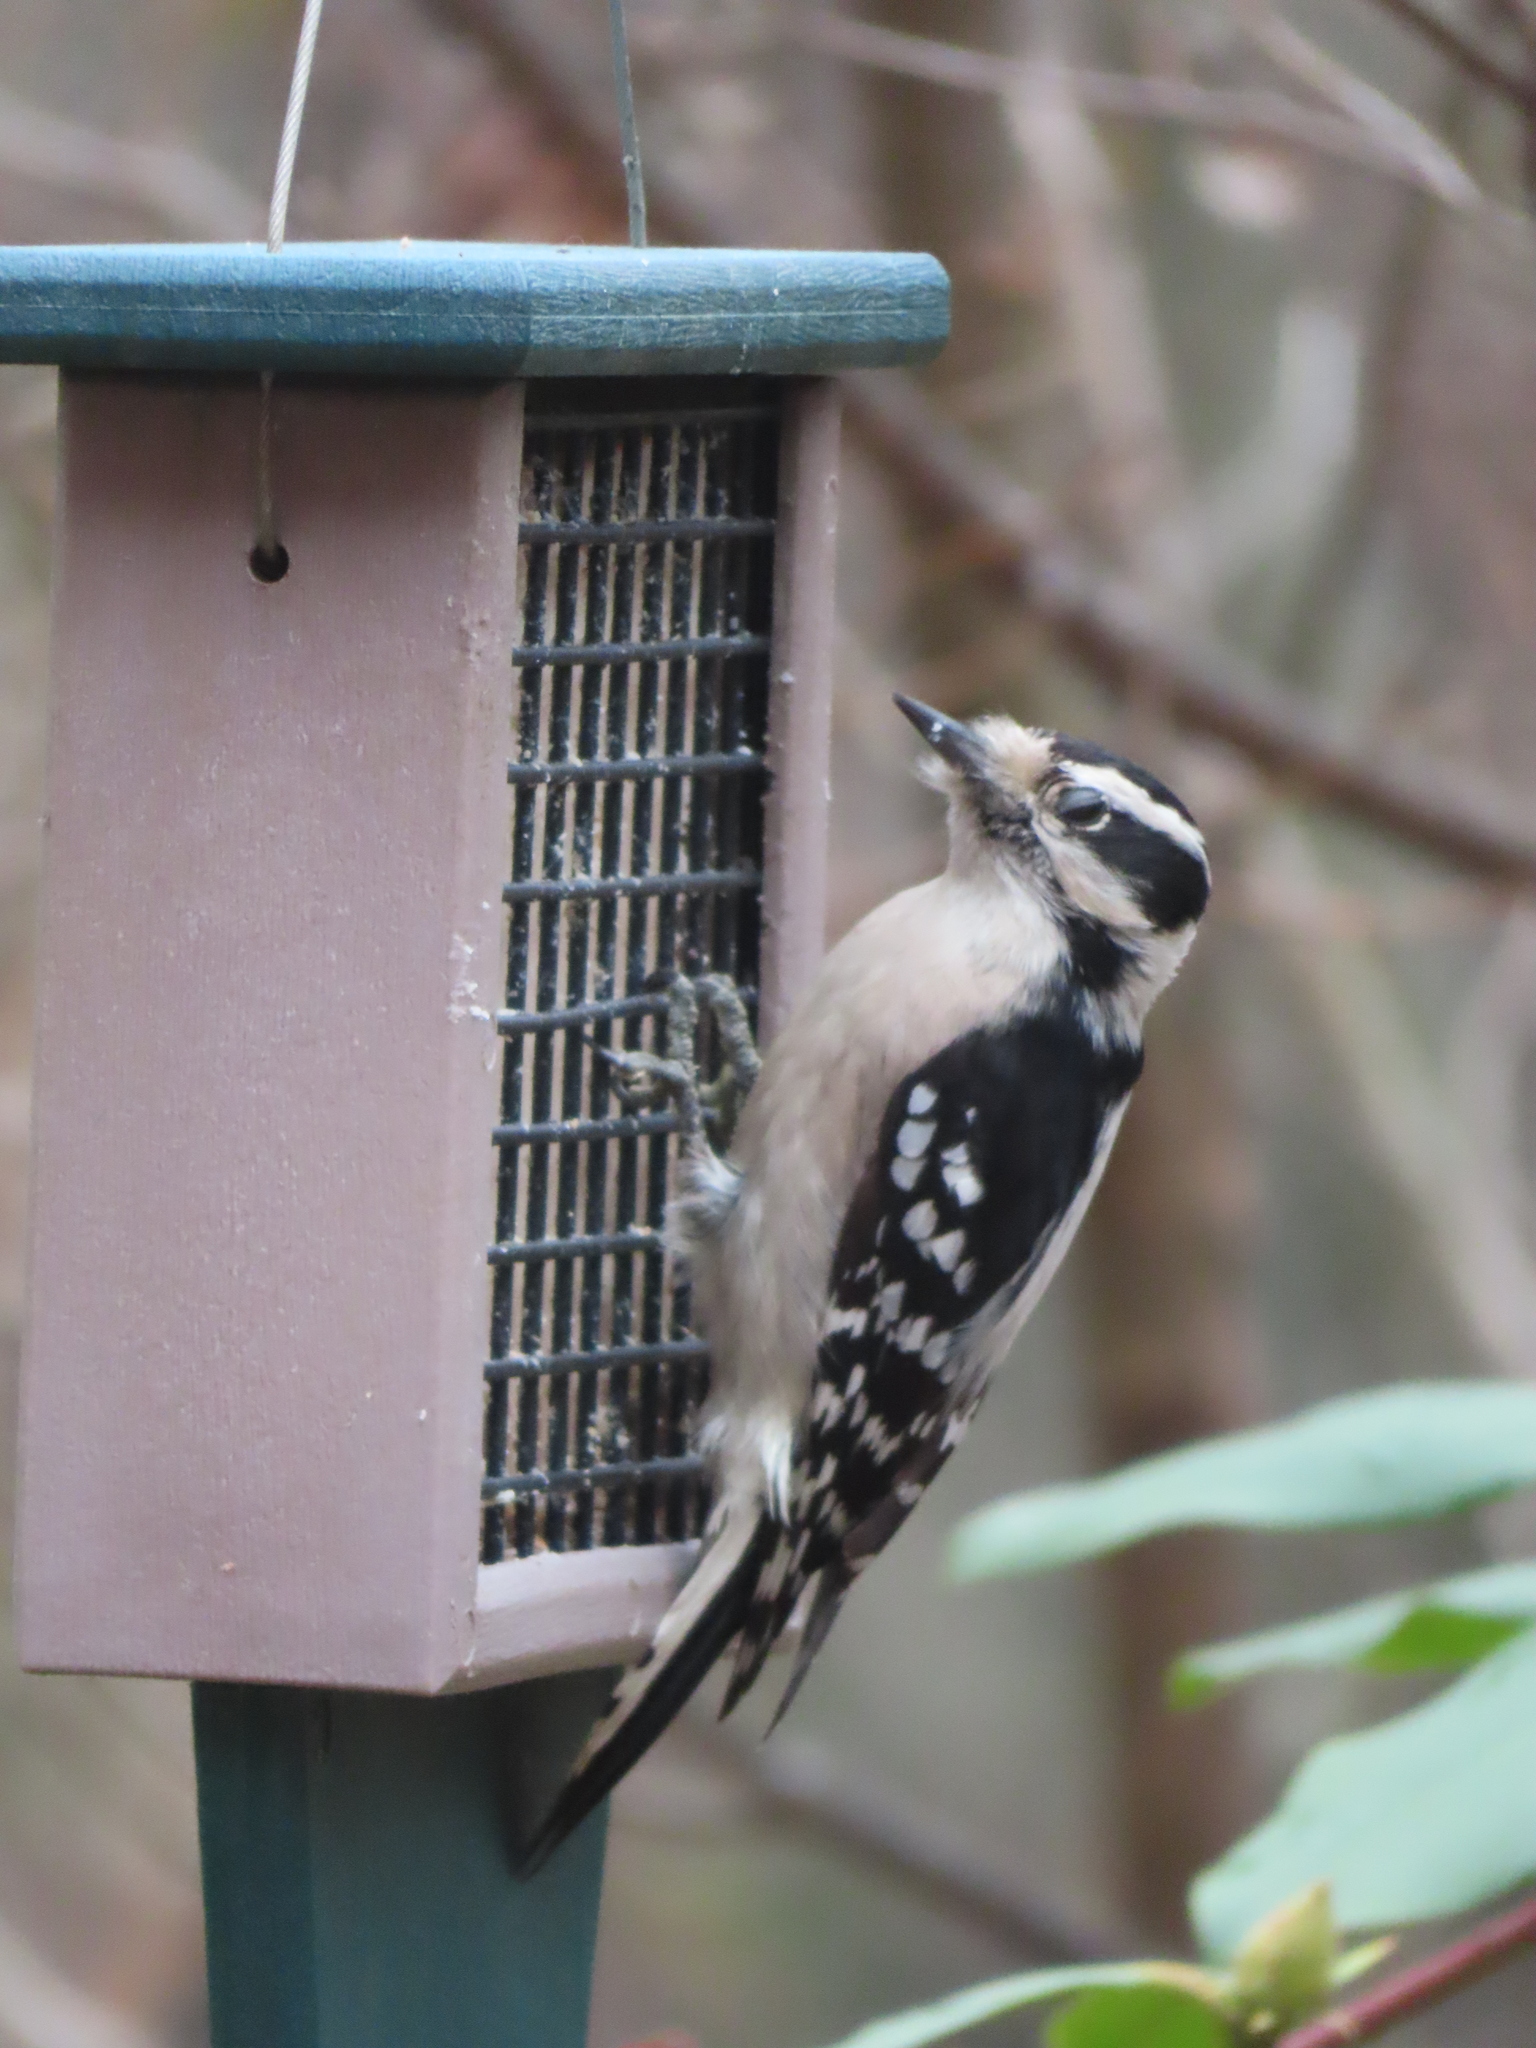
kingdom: Animalia
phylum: Chordata
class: Aves
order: Piciformes
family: Picidae
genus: Dryobates
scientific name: Dryobates pubescens
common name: Downy woodpecker
